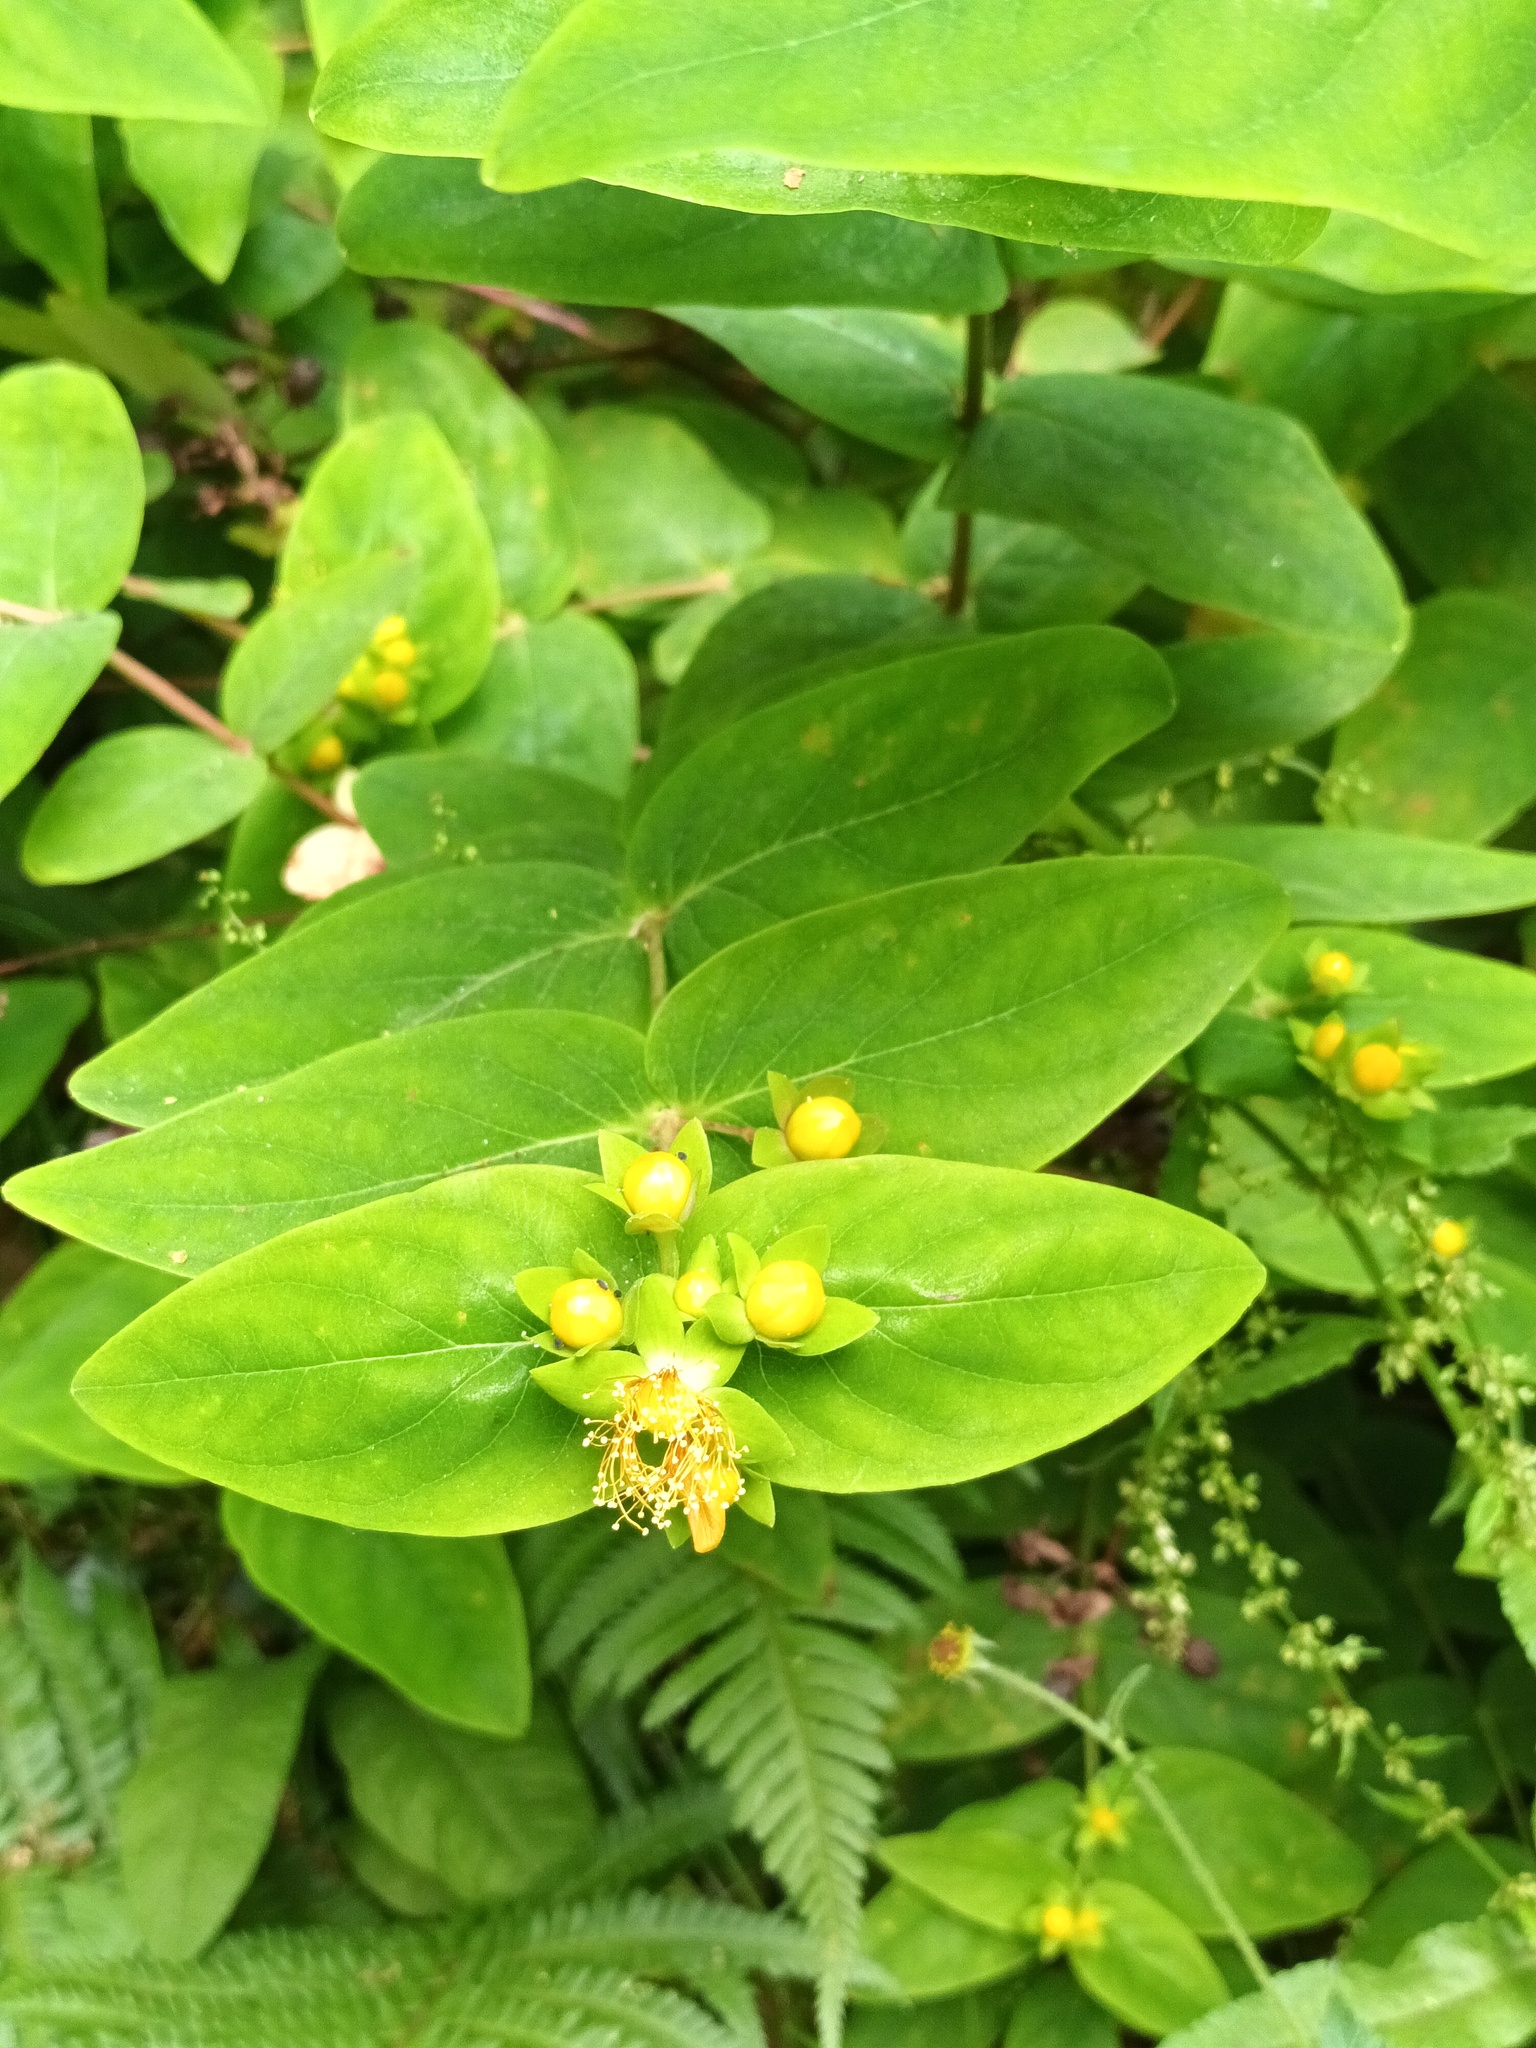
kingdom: Plantae
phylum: Tracheophyta
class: Magnoliopsida
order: Malpighiales
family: Hypericaceae
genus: Hypericum
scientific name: Hypericum androsaemum
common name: Sweet-amber
